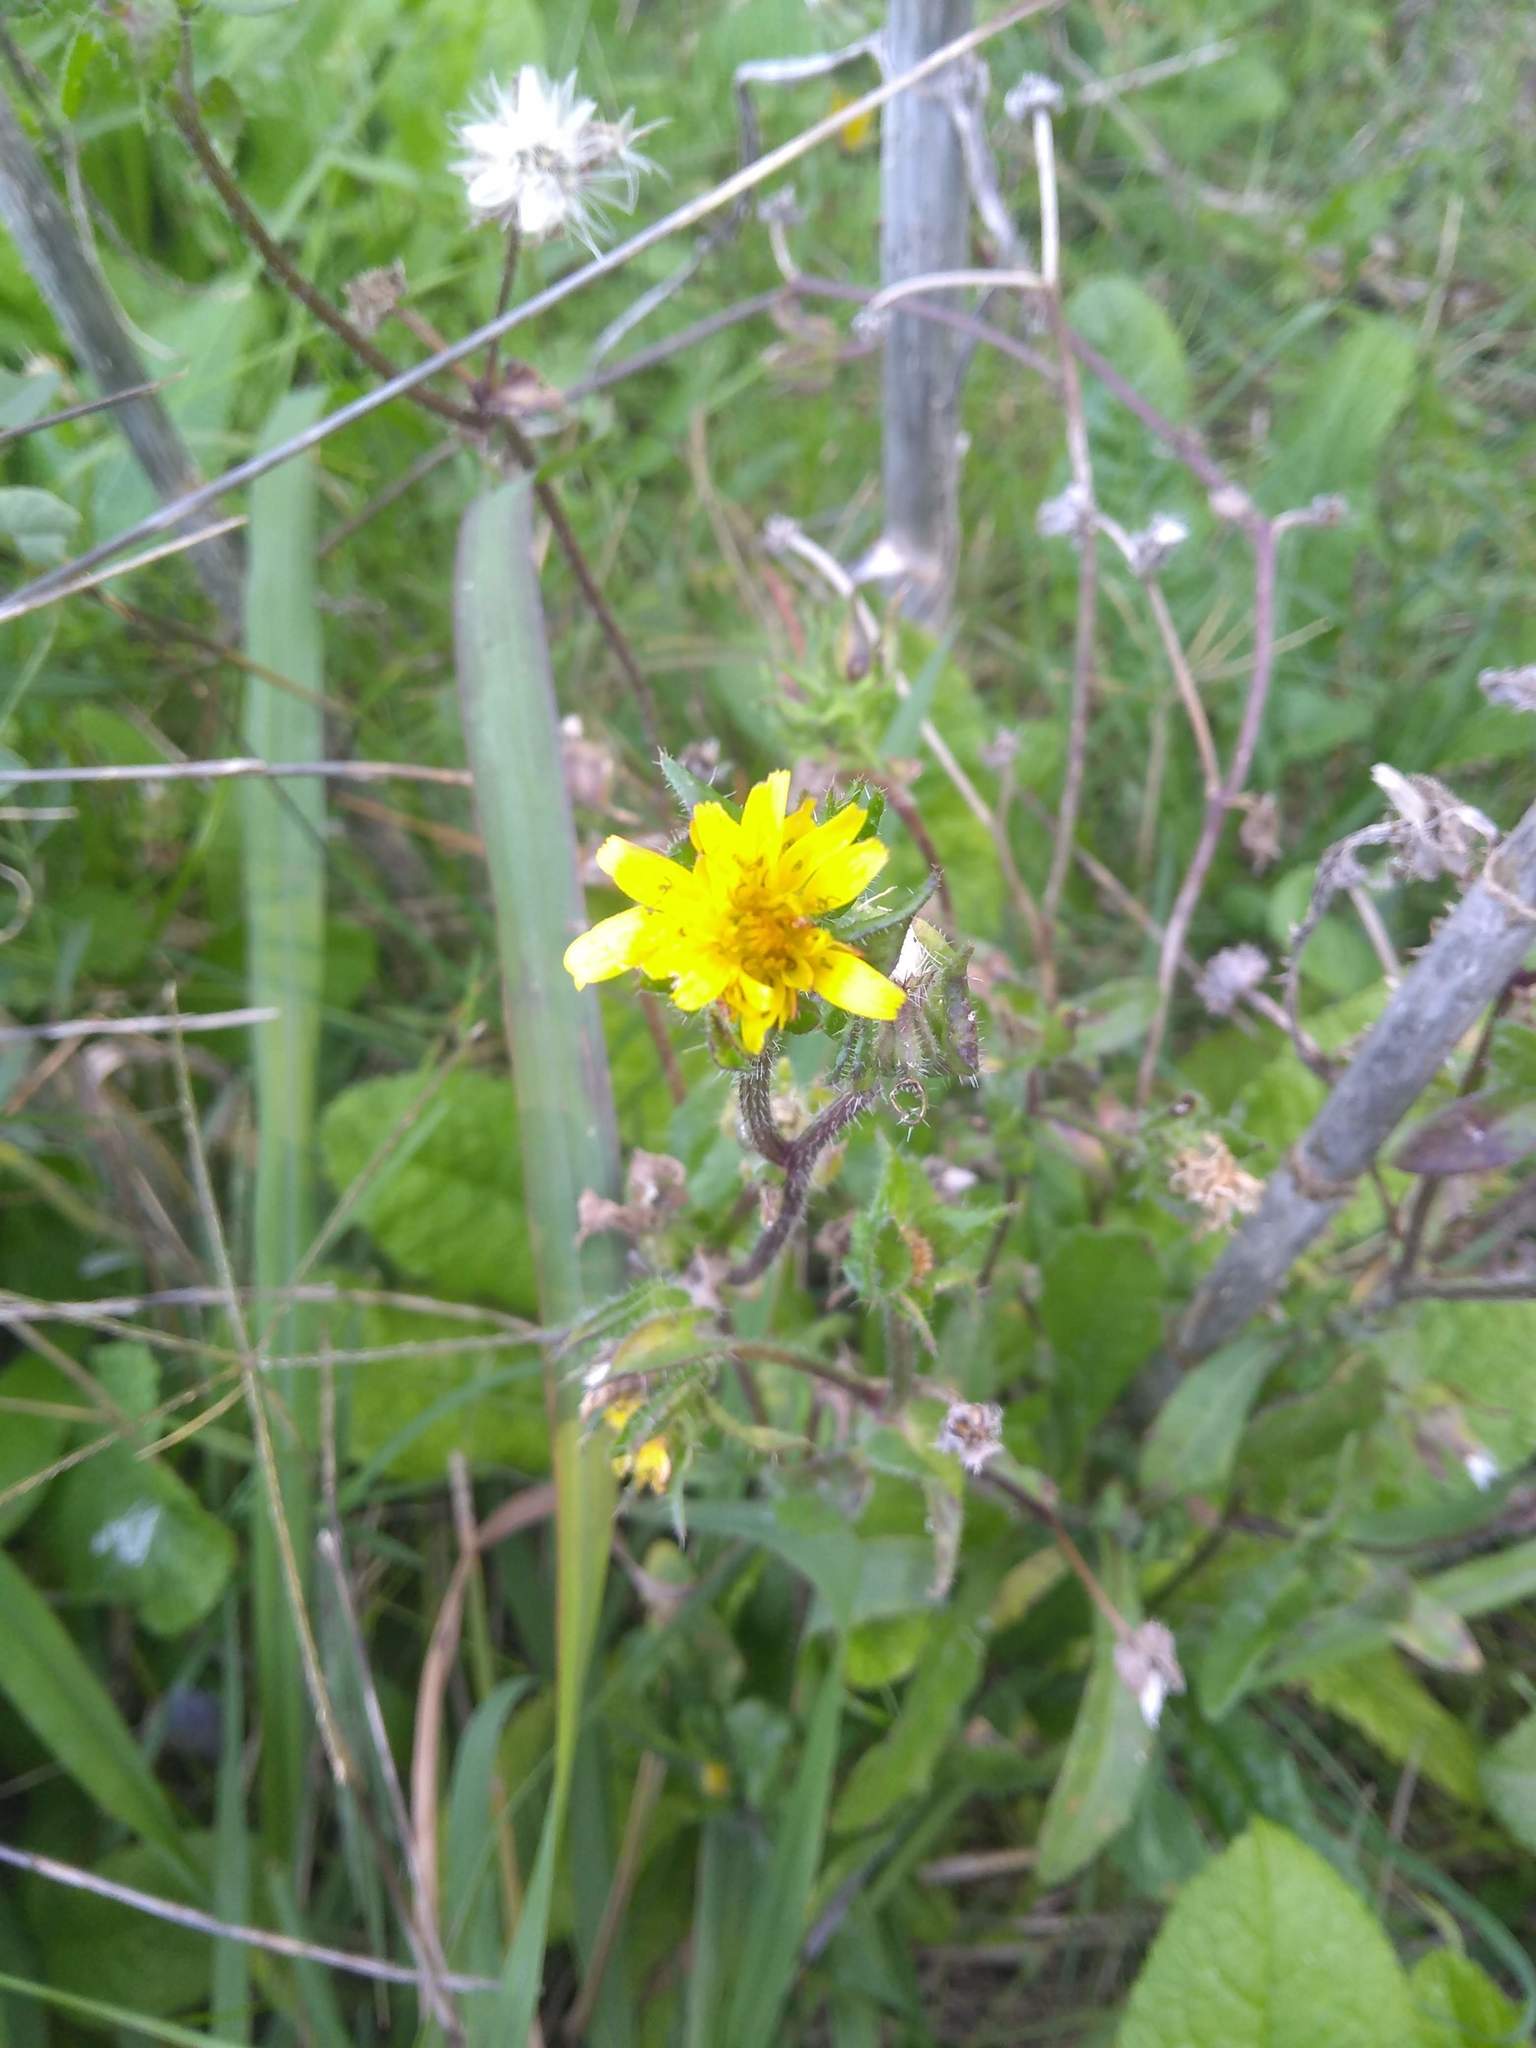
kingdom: Plantae
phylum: Tracheophyta
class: Magnoliopsida
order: Asterales
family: Asteraceae
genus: Helminthotheca
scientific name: Helminthotheca echioides
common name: Ox-tongue
